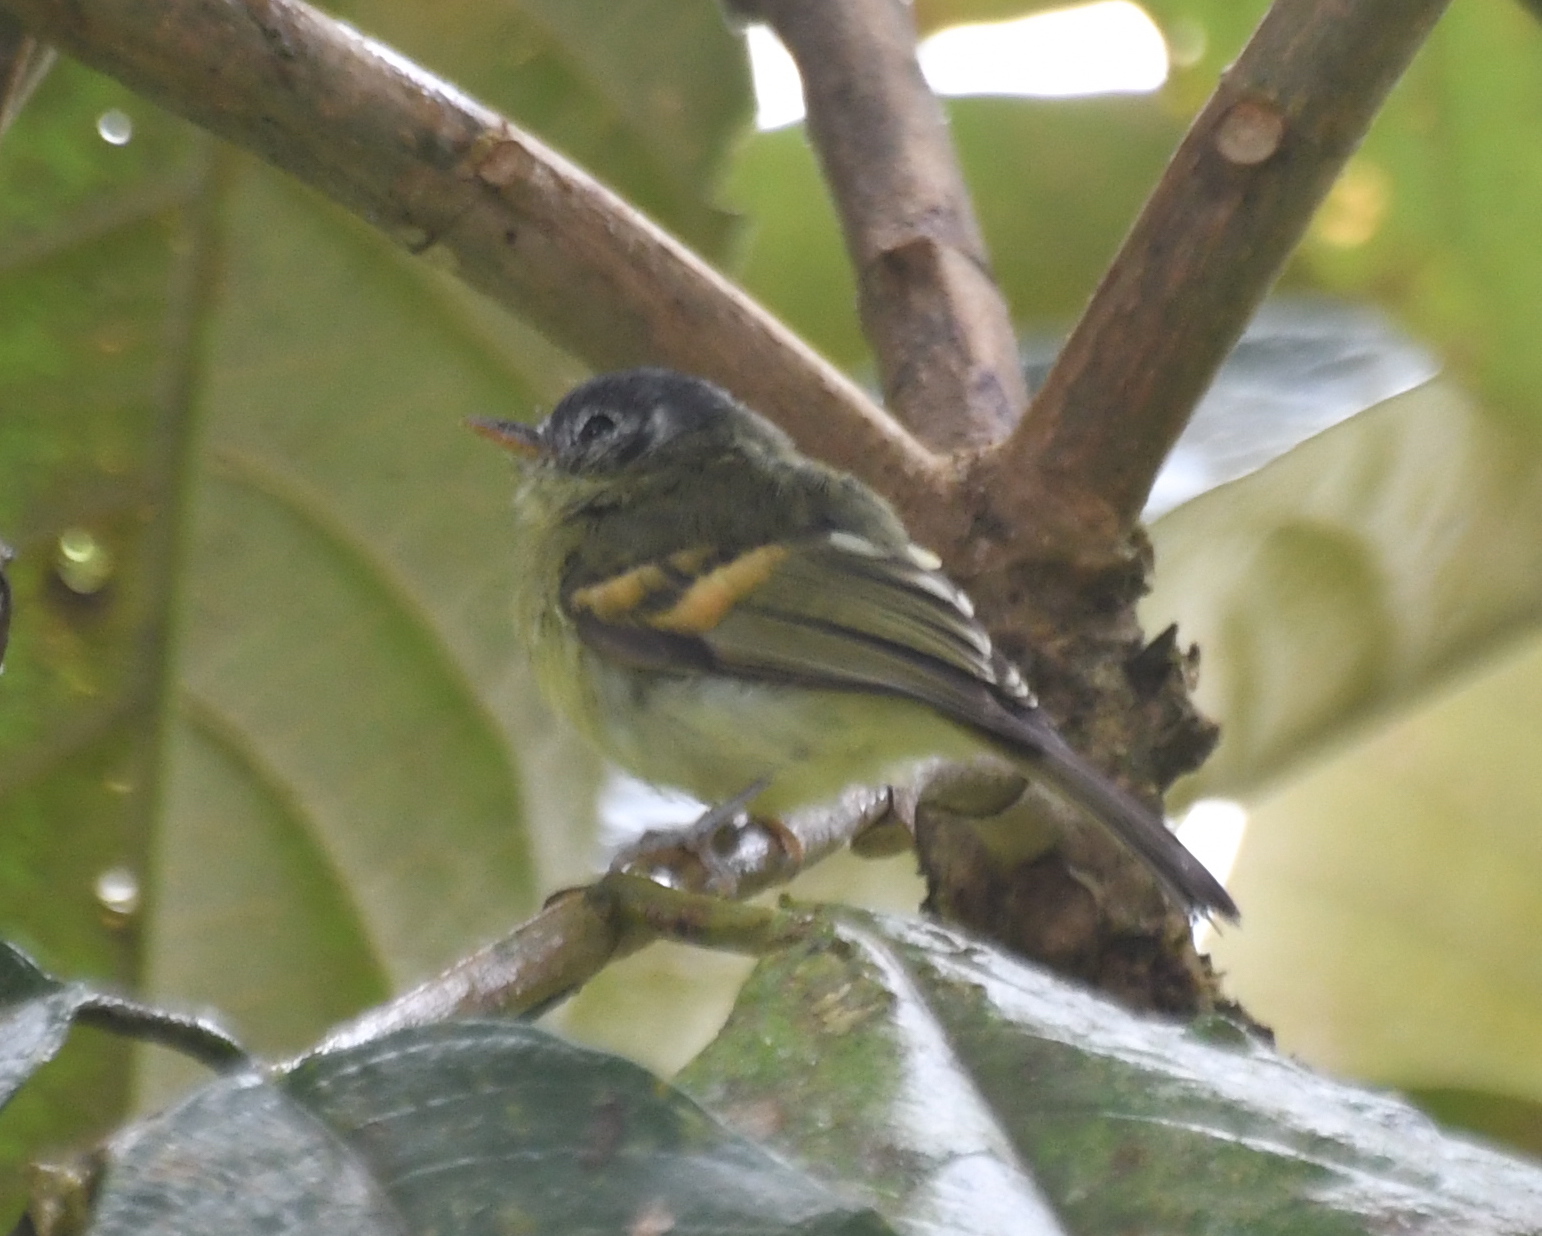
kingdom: Animalia
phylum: Chordata
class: Aves
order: Passeriformes
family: Tyrannidae
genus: Phylloscartes
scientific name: Phylloscartes poecilotis
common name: Variegated bristle-tyrant
